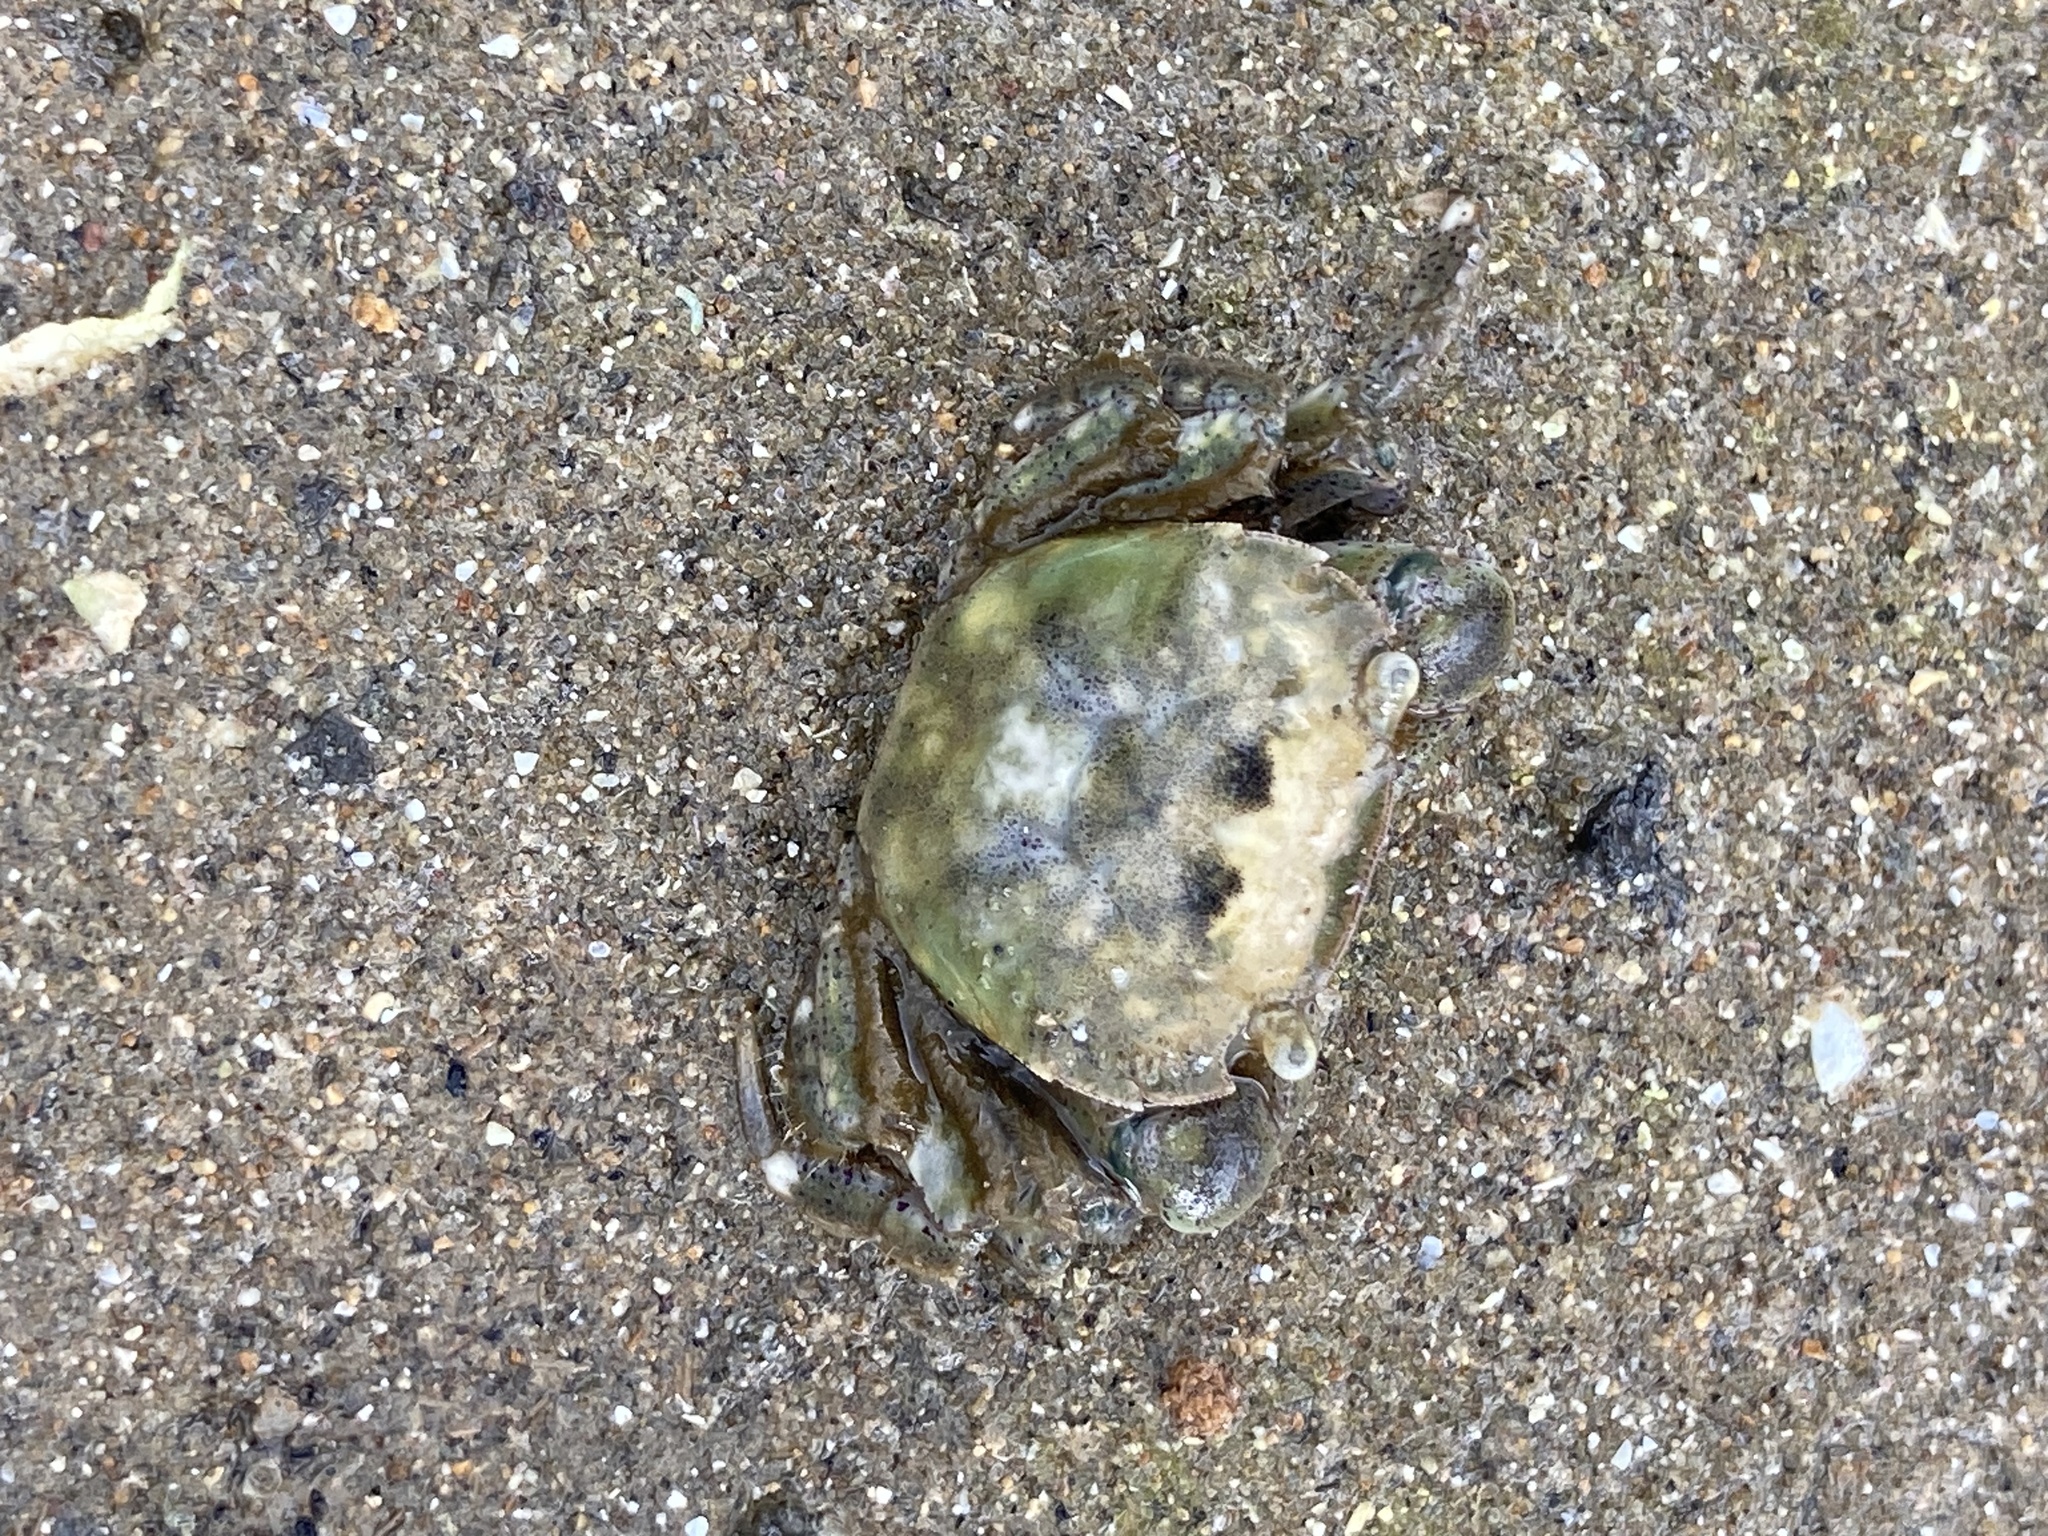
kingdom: Animalia
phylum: Arthropoda
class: Malacostraca
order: Decapoda
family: Varunidae
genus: Hemigrapsus
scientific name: Hemigrapsus crenulatus
